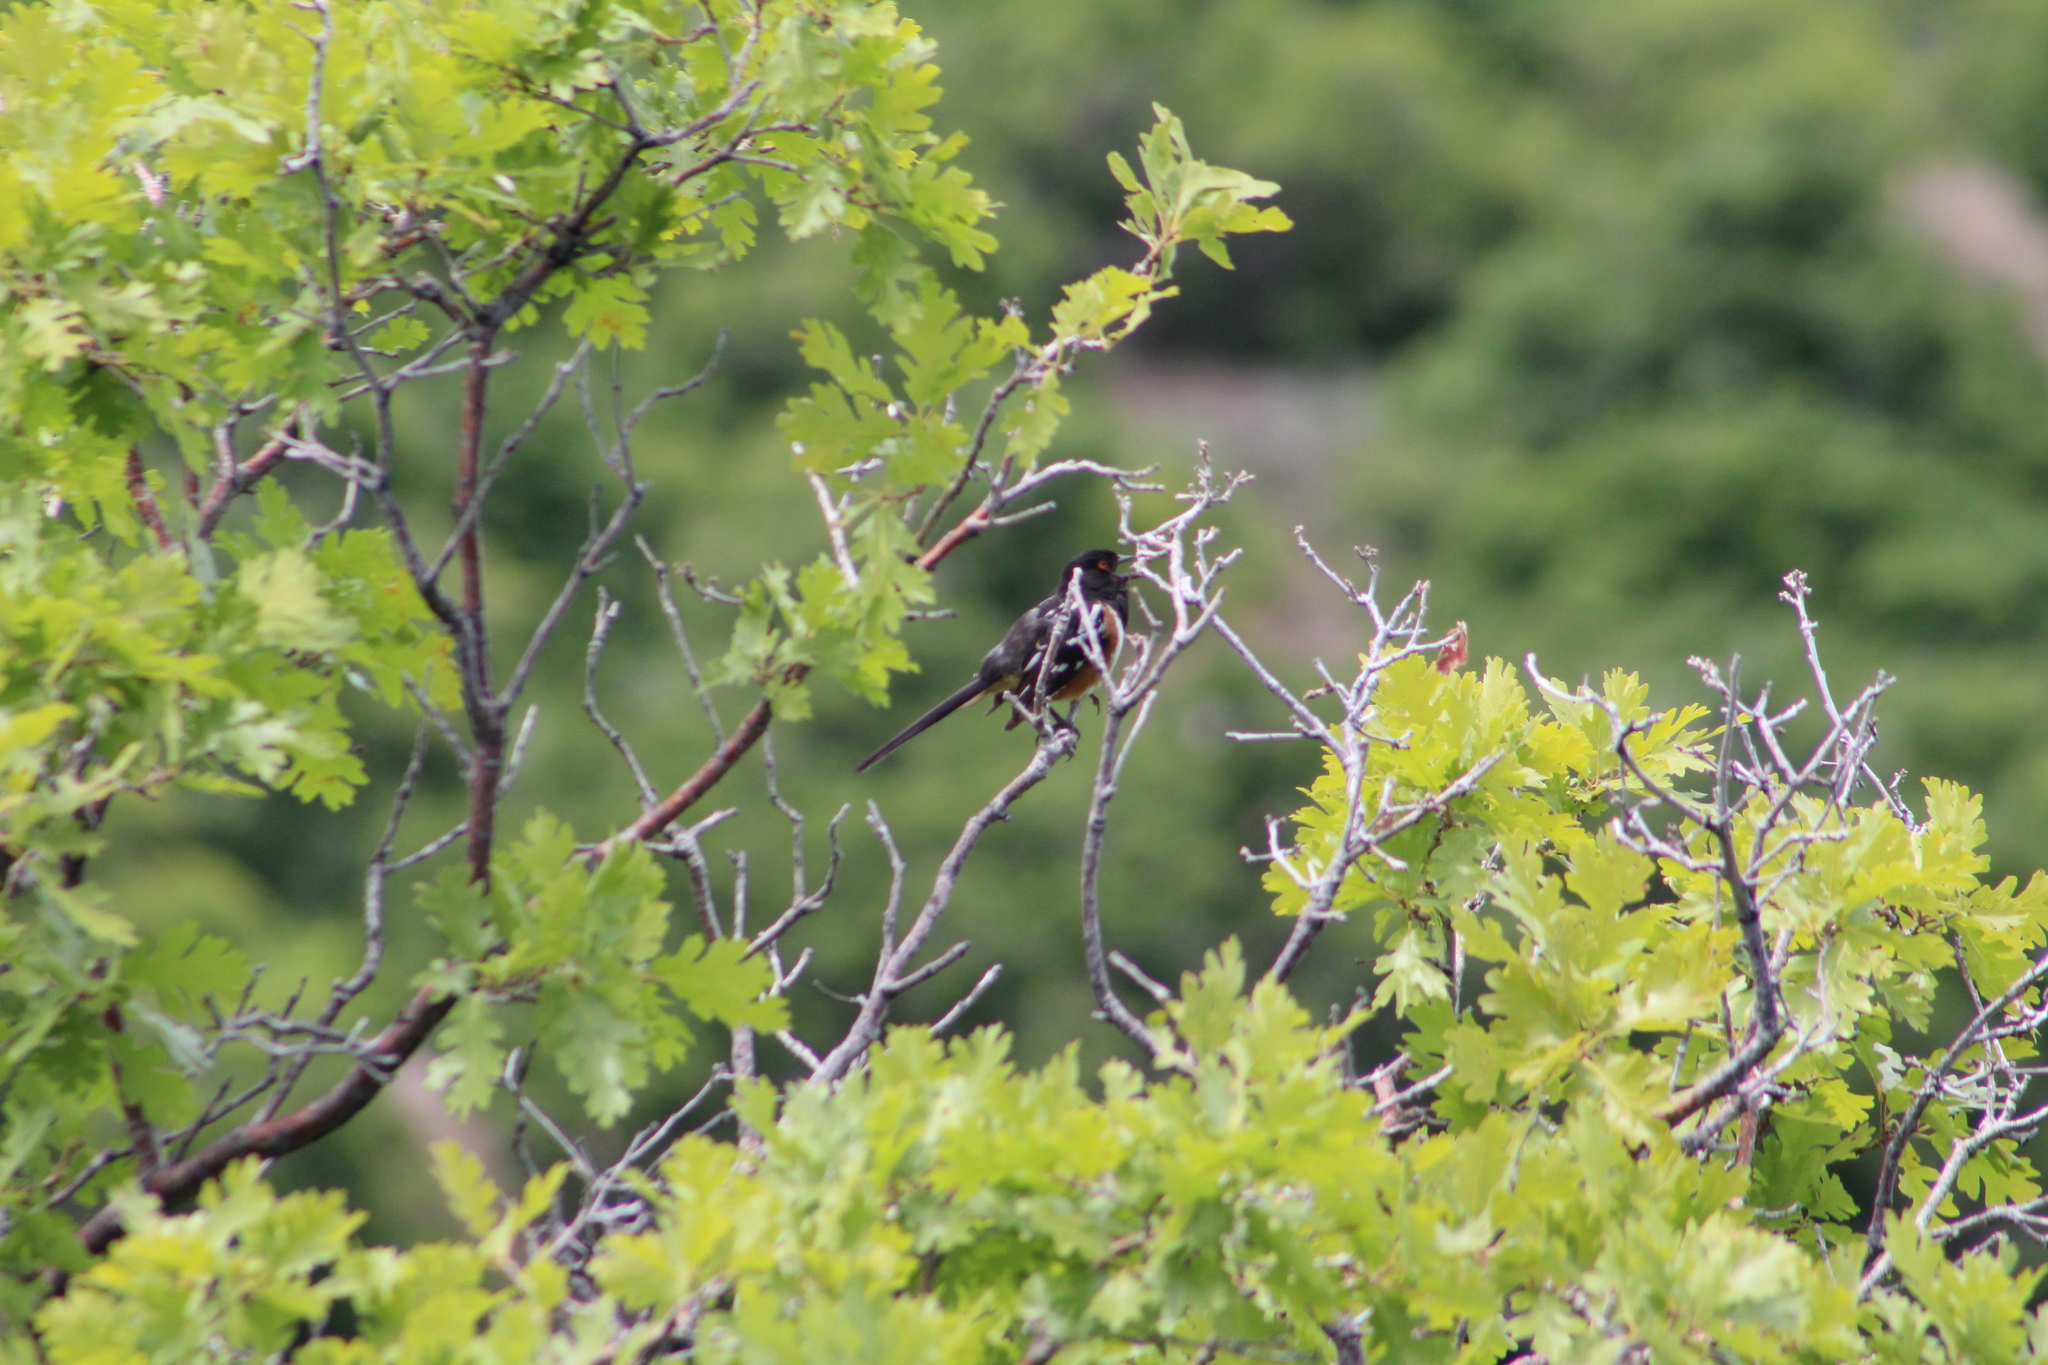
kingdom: Animalia
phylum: Chordata
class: Aves
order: Passeriformes
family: Passerellidae
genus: Pipilo
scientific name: Pipilo maculatus
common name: Spotted towhee
